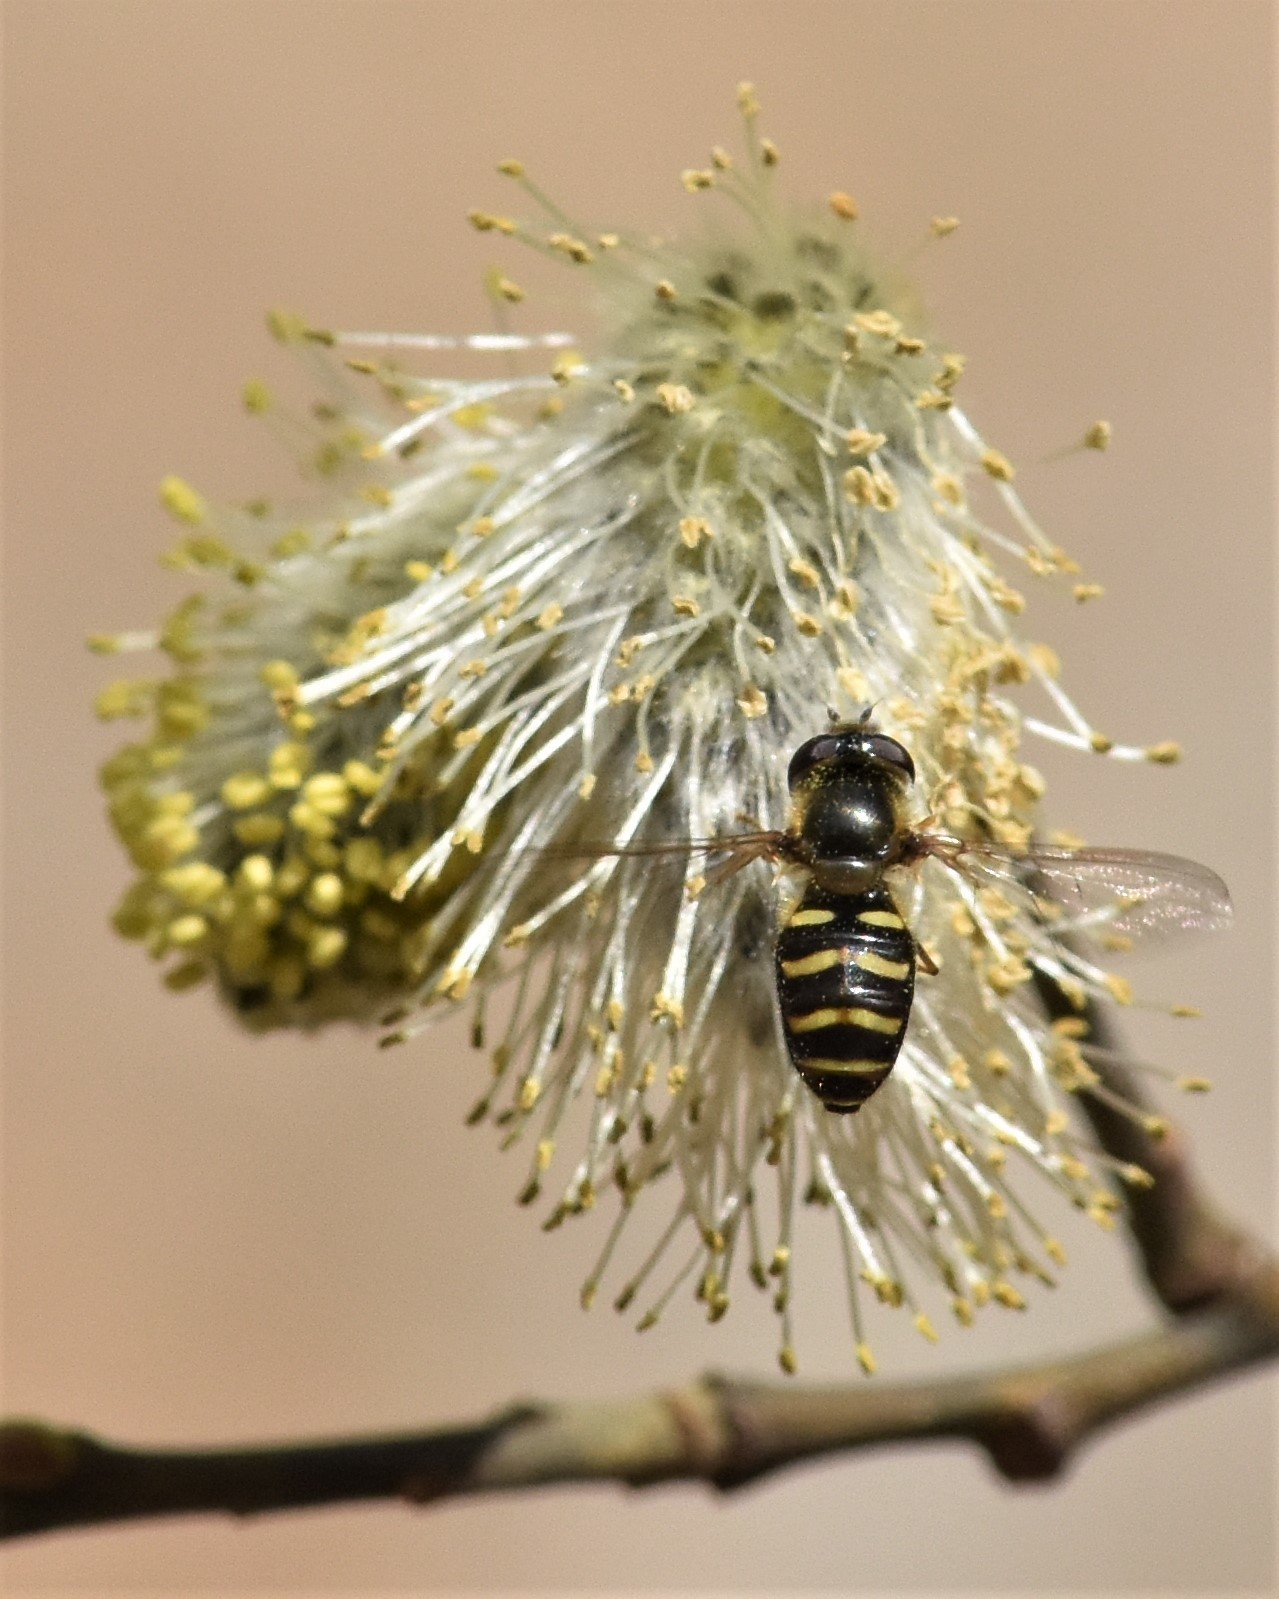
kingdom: Animalia
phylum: Arthropoda
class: Insecta
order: Diptera
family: Syrphidae
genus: Lapposyrphus
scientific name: Lapposyrphus aberrantis
